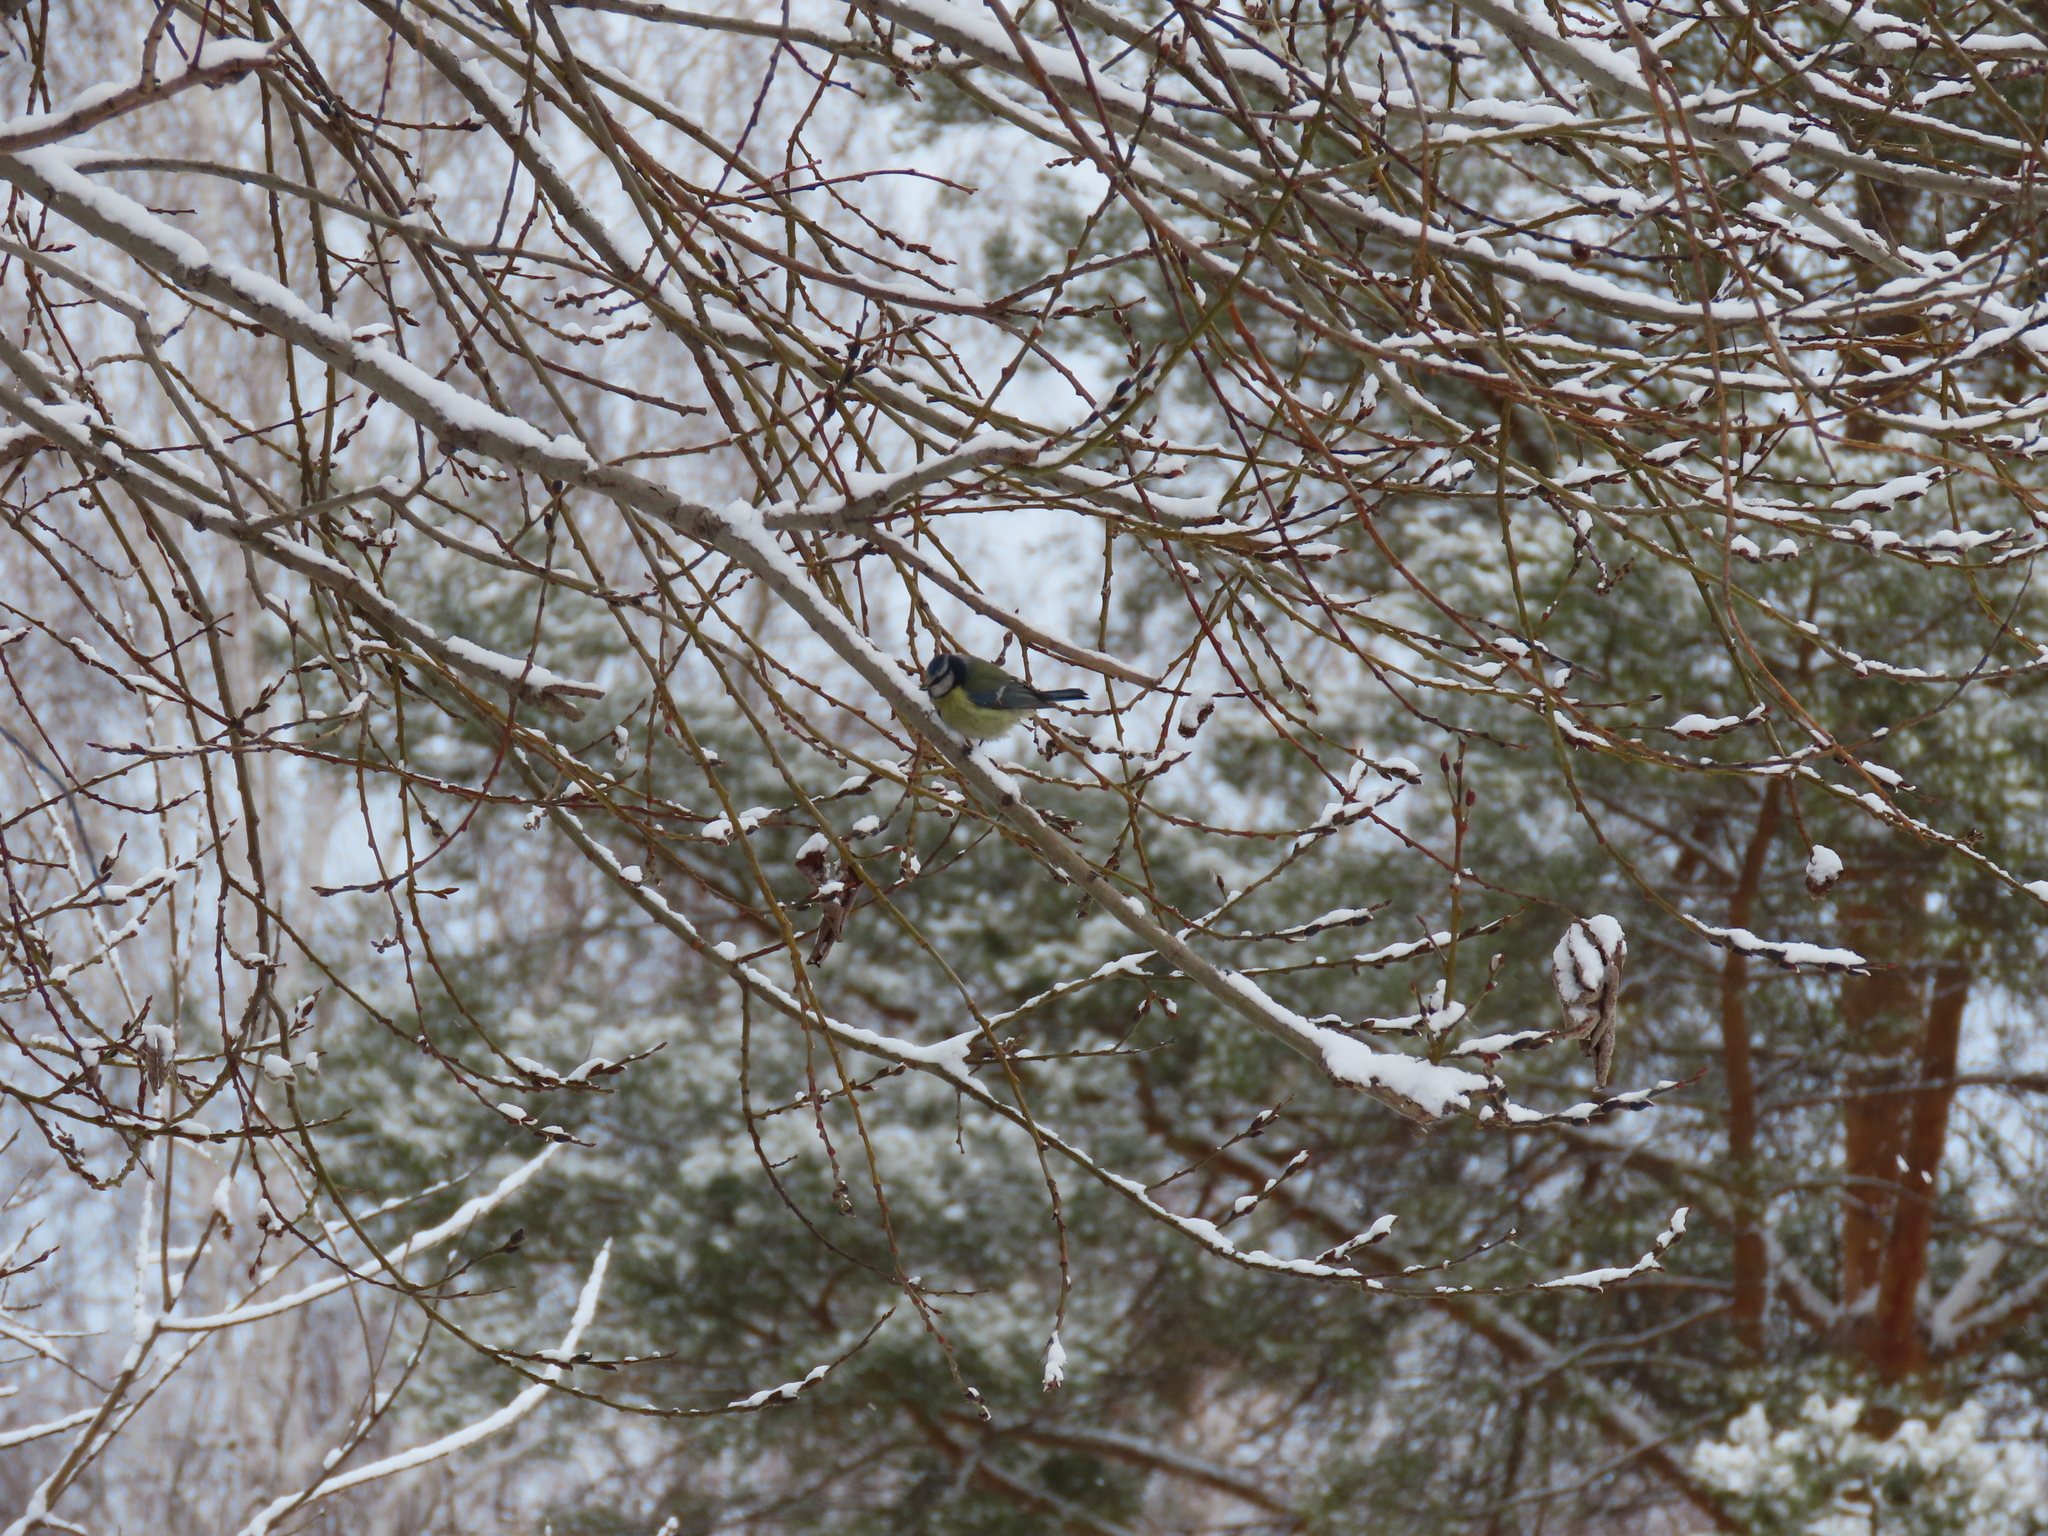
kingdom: Animalia
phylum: Chordata
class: Aves
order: Passeriformes
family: Paridae
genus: Cyanistes
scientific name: Cyanistes caeruleus
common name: Eurasian blue tit
